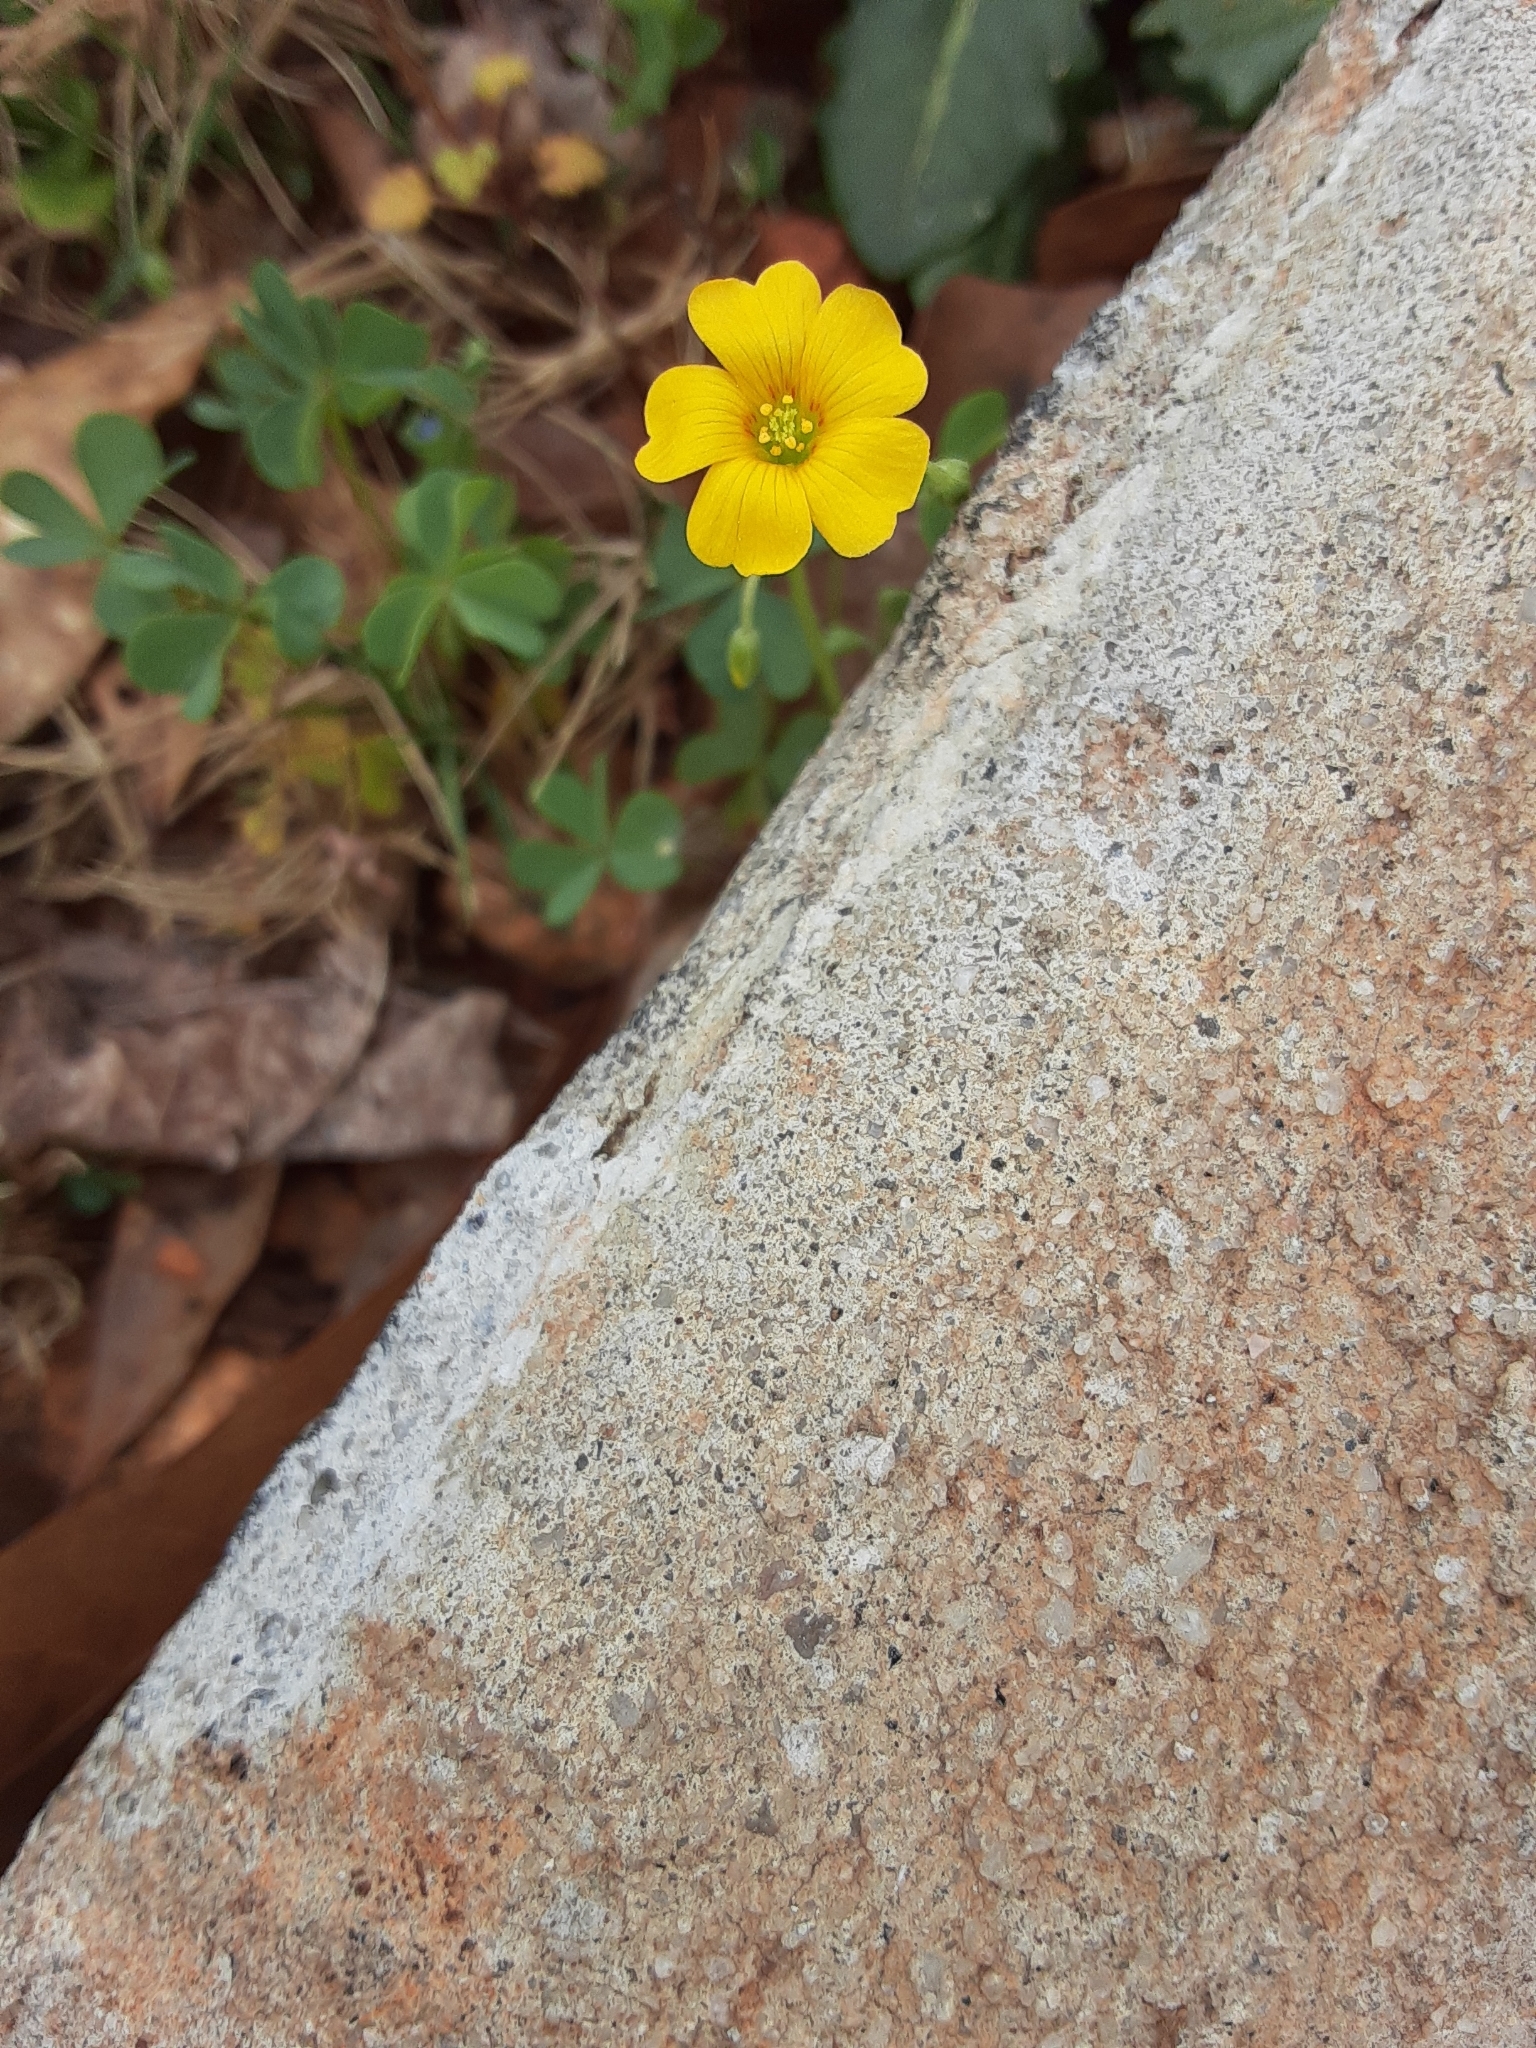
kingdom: Plantae
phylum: Tracheophyta
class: Magnoliopsida
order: Oxalidales
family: Oxalidaceae
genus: Oxalis
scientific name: Oxalis
